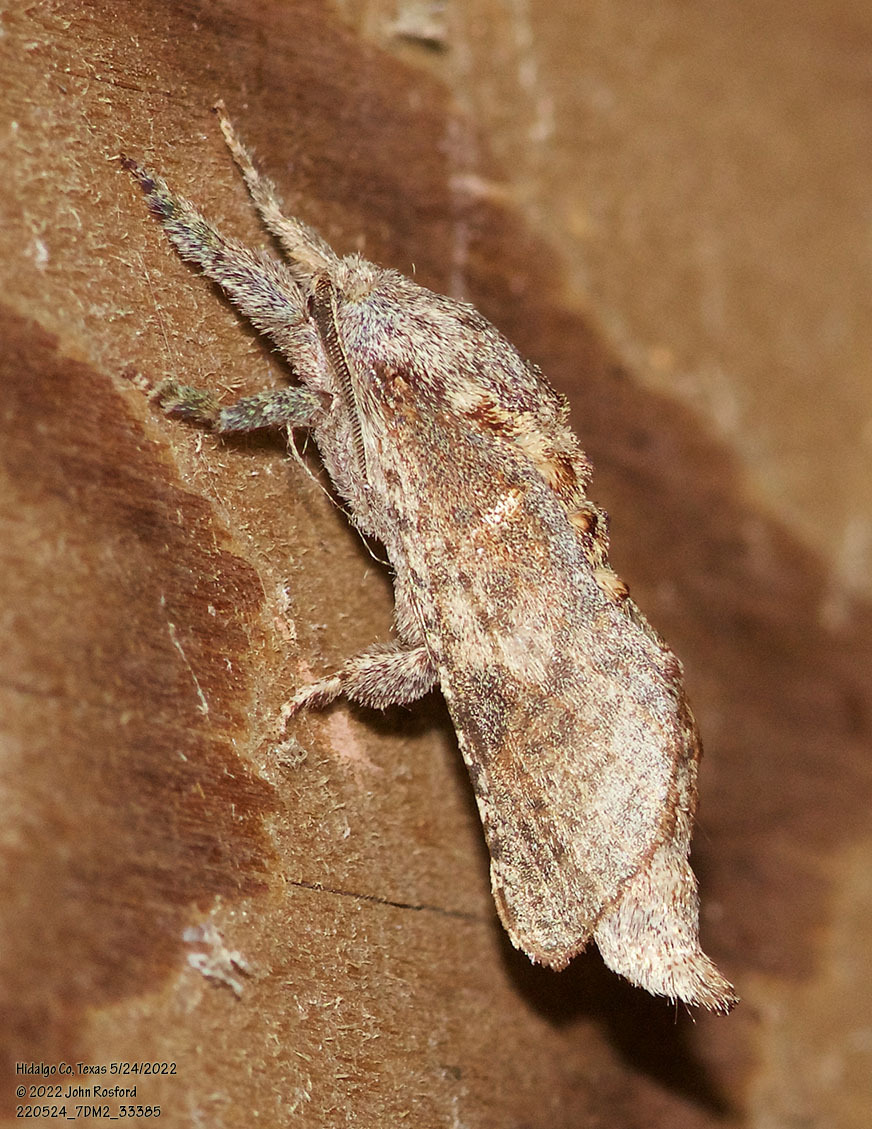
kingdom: Animalia
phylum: Arthropoda
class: Insecta
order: Lepidoptera
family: Cossidae
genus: Givira
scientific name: Givira arbeloides
